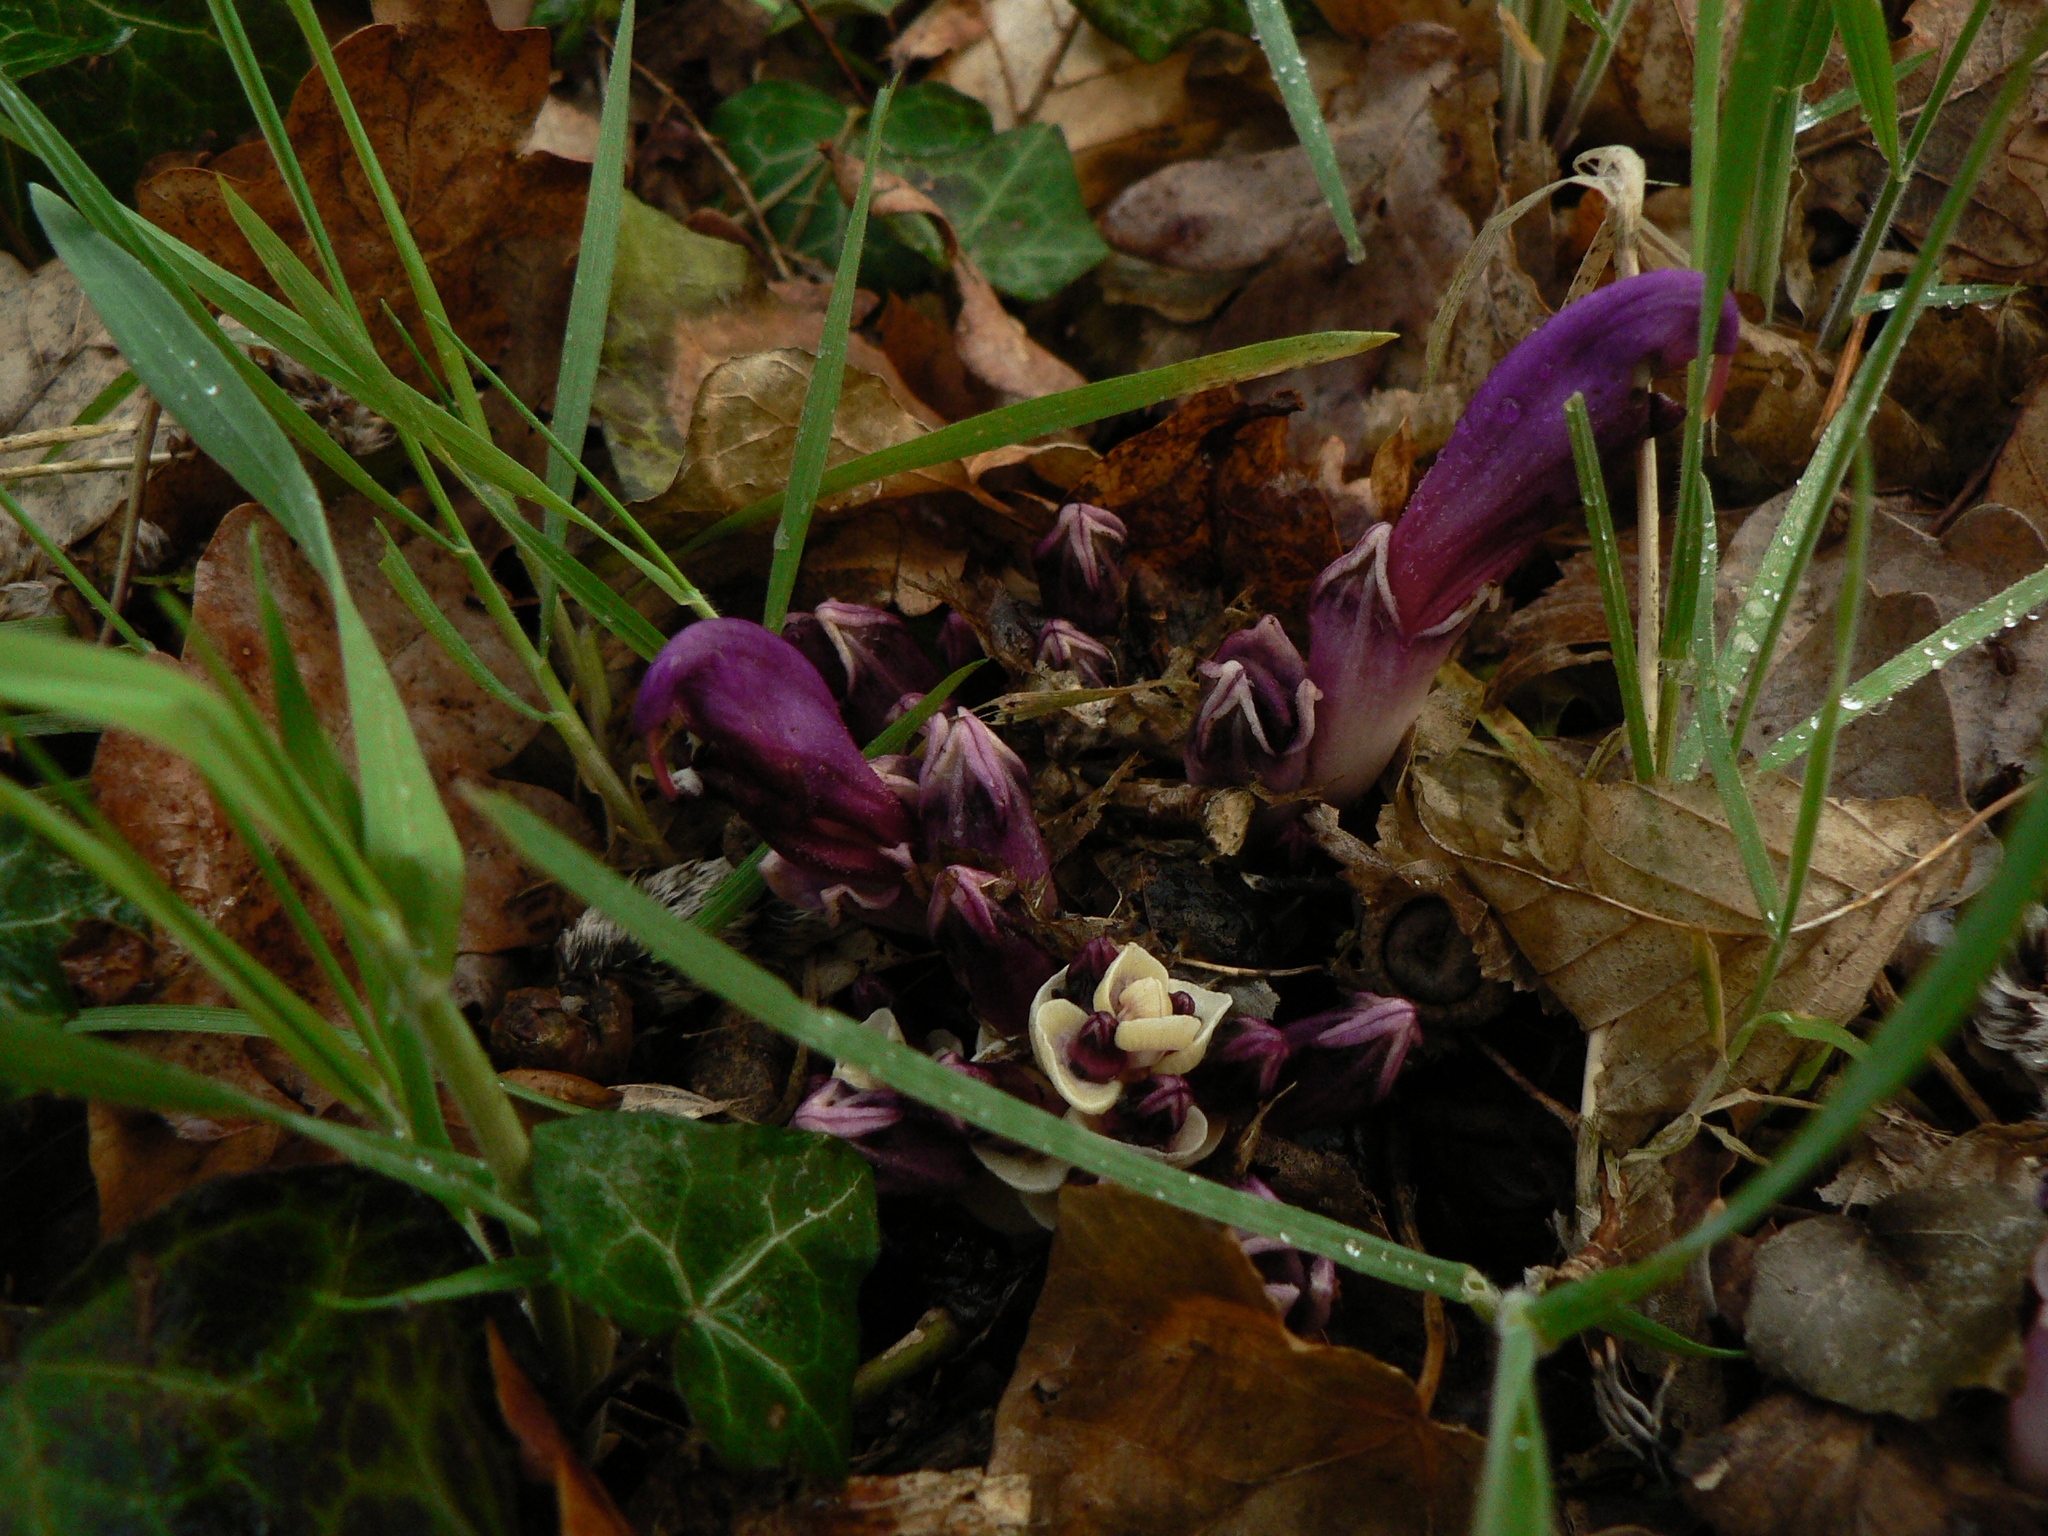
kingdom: Plantae
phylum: Tracheophyta
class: Magnoliopsida
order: Lamiales
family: Orobanchaceae
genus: Lathraea
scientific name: Lathraea clandestina
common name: Purple toothwort
